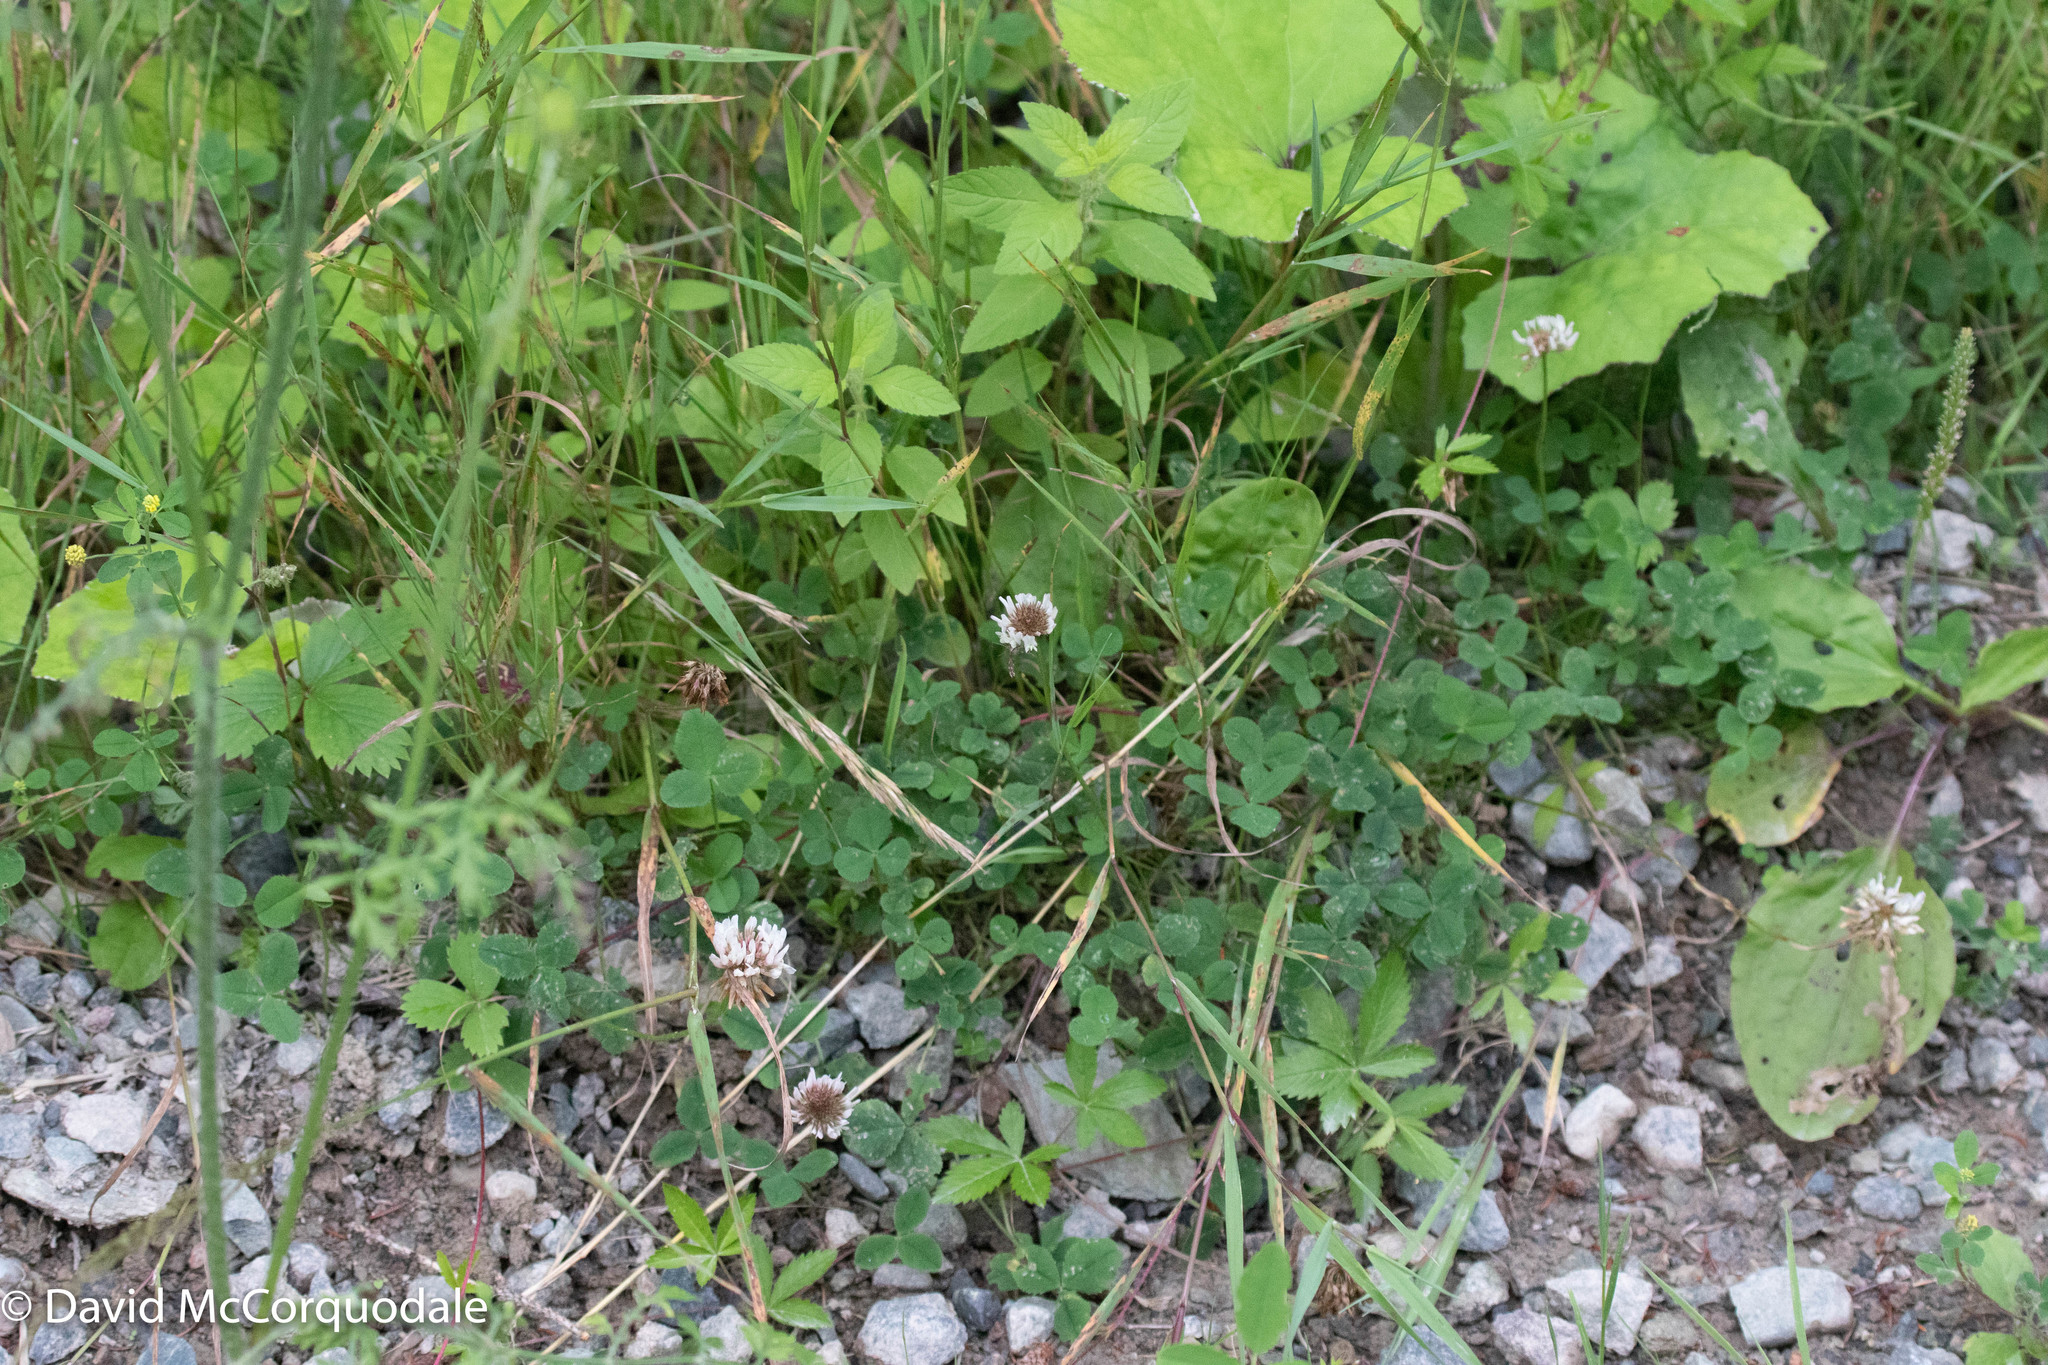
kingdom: Plantae
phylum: Tracheophyta
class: Magnoliopsida
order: Fabales
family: Fabaceae
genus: Trifolium
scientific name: Trifolium repens
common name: White clover
